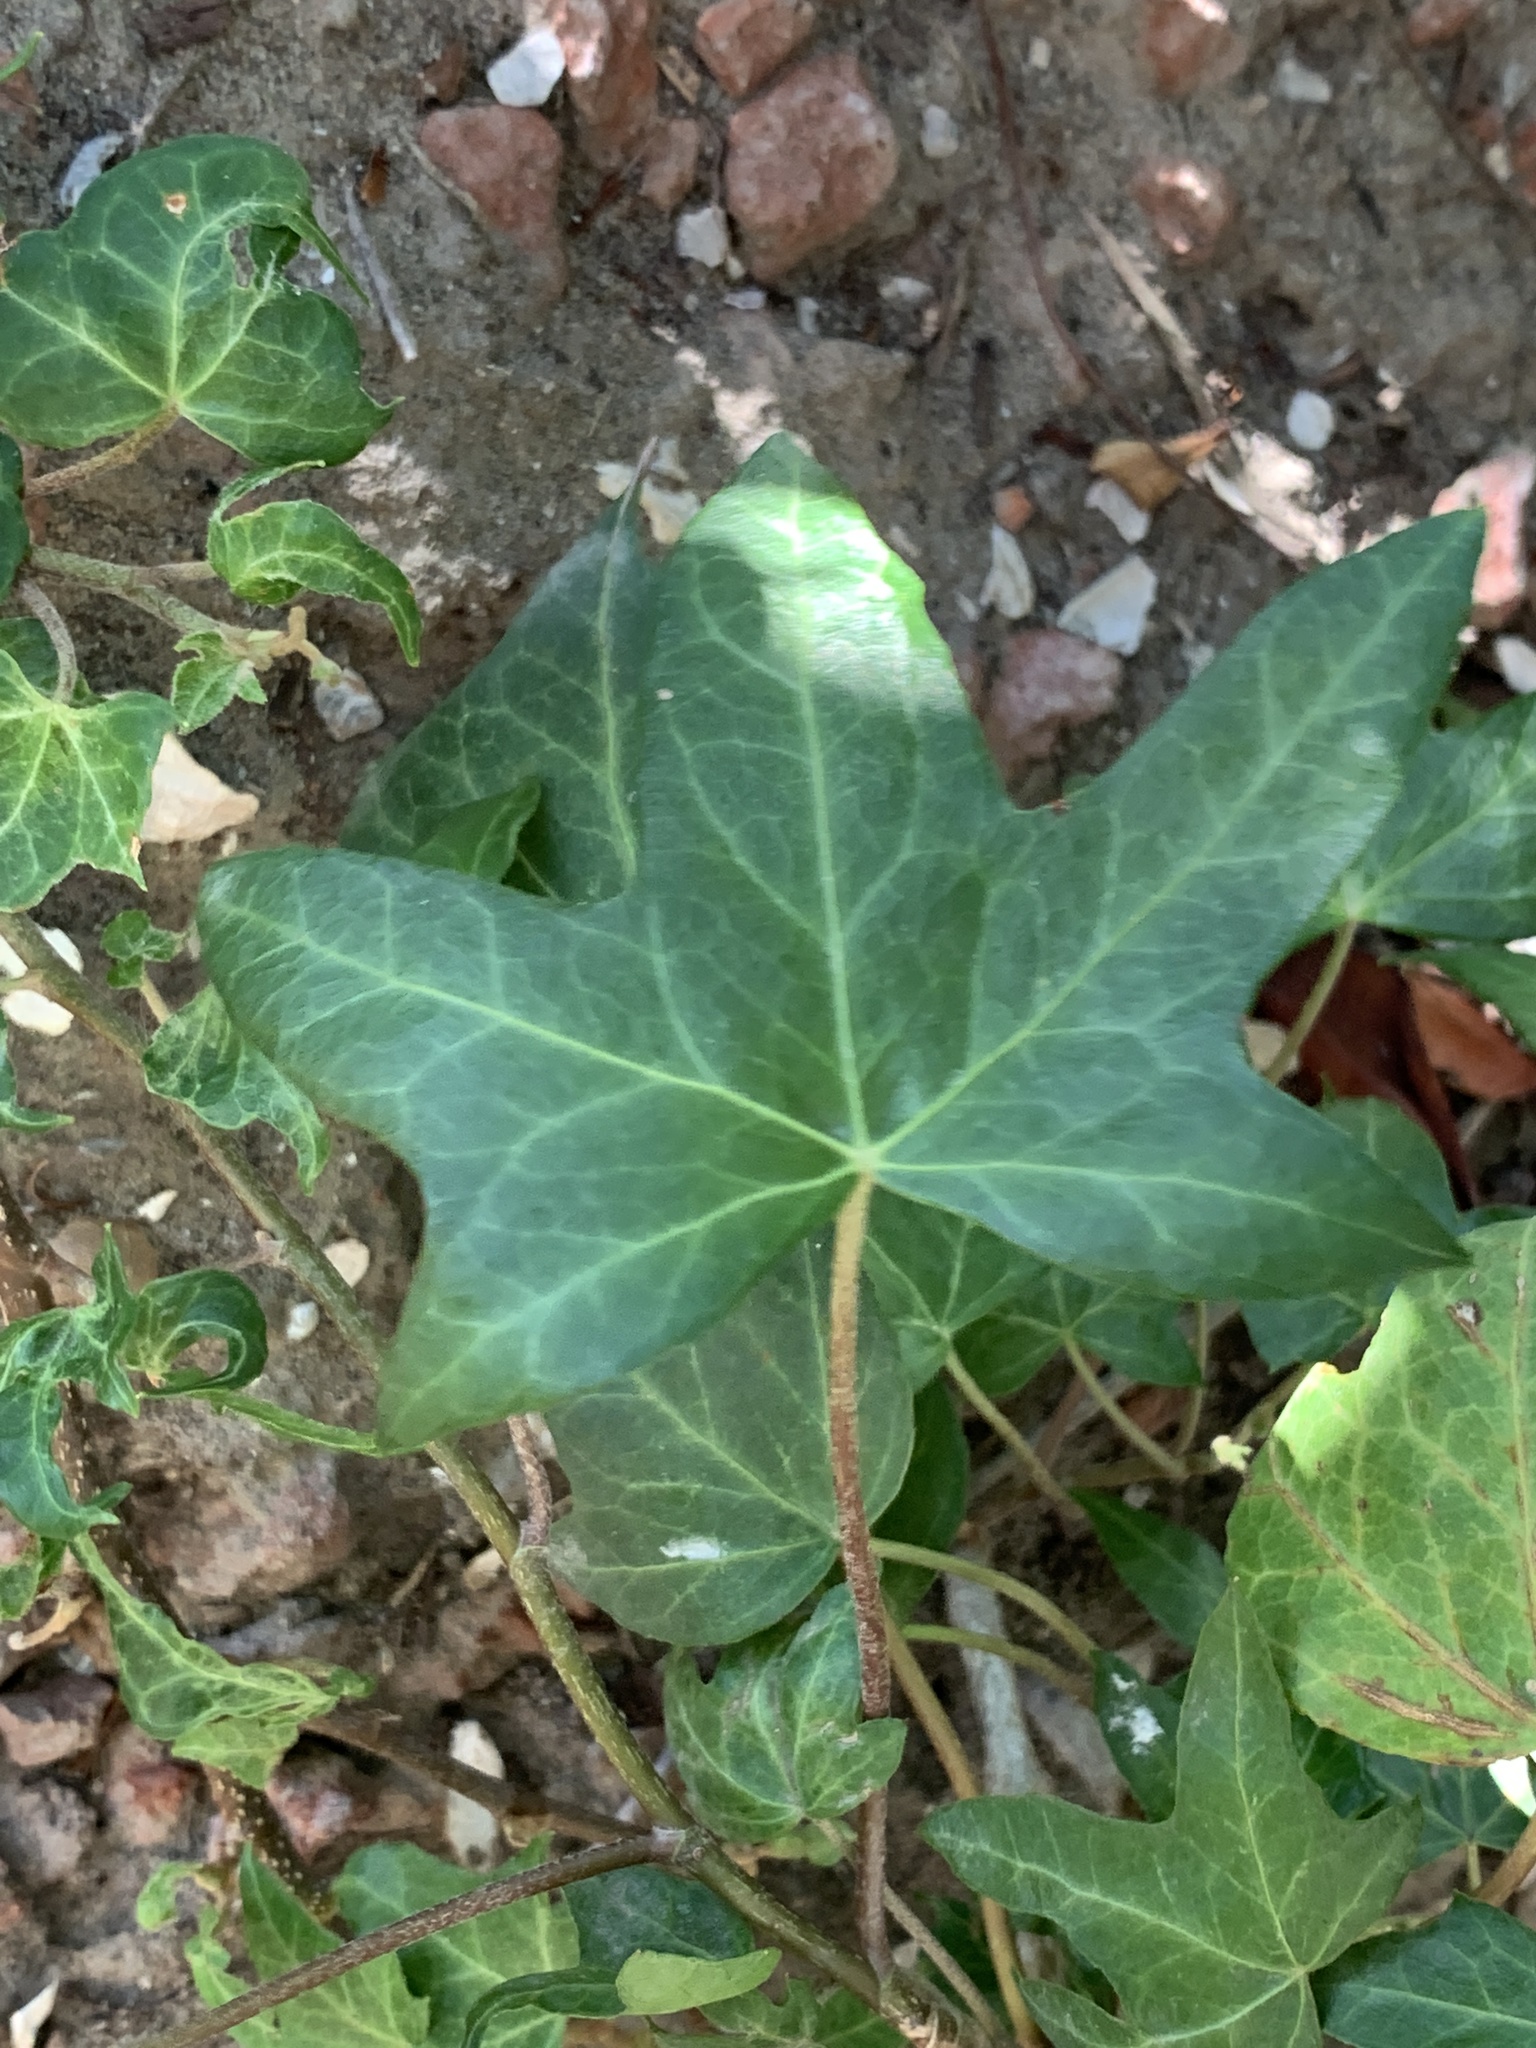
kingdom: Plantae
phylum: Tracheophyta
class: Magnoliopsida
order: Apiales
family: Araliaceae
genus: Hedera
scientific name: Hedera helix
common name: Ivy
